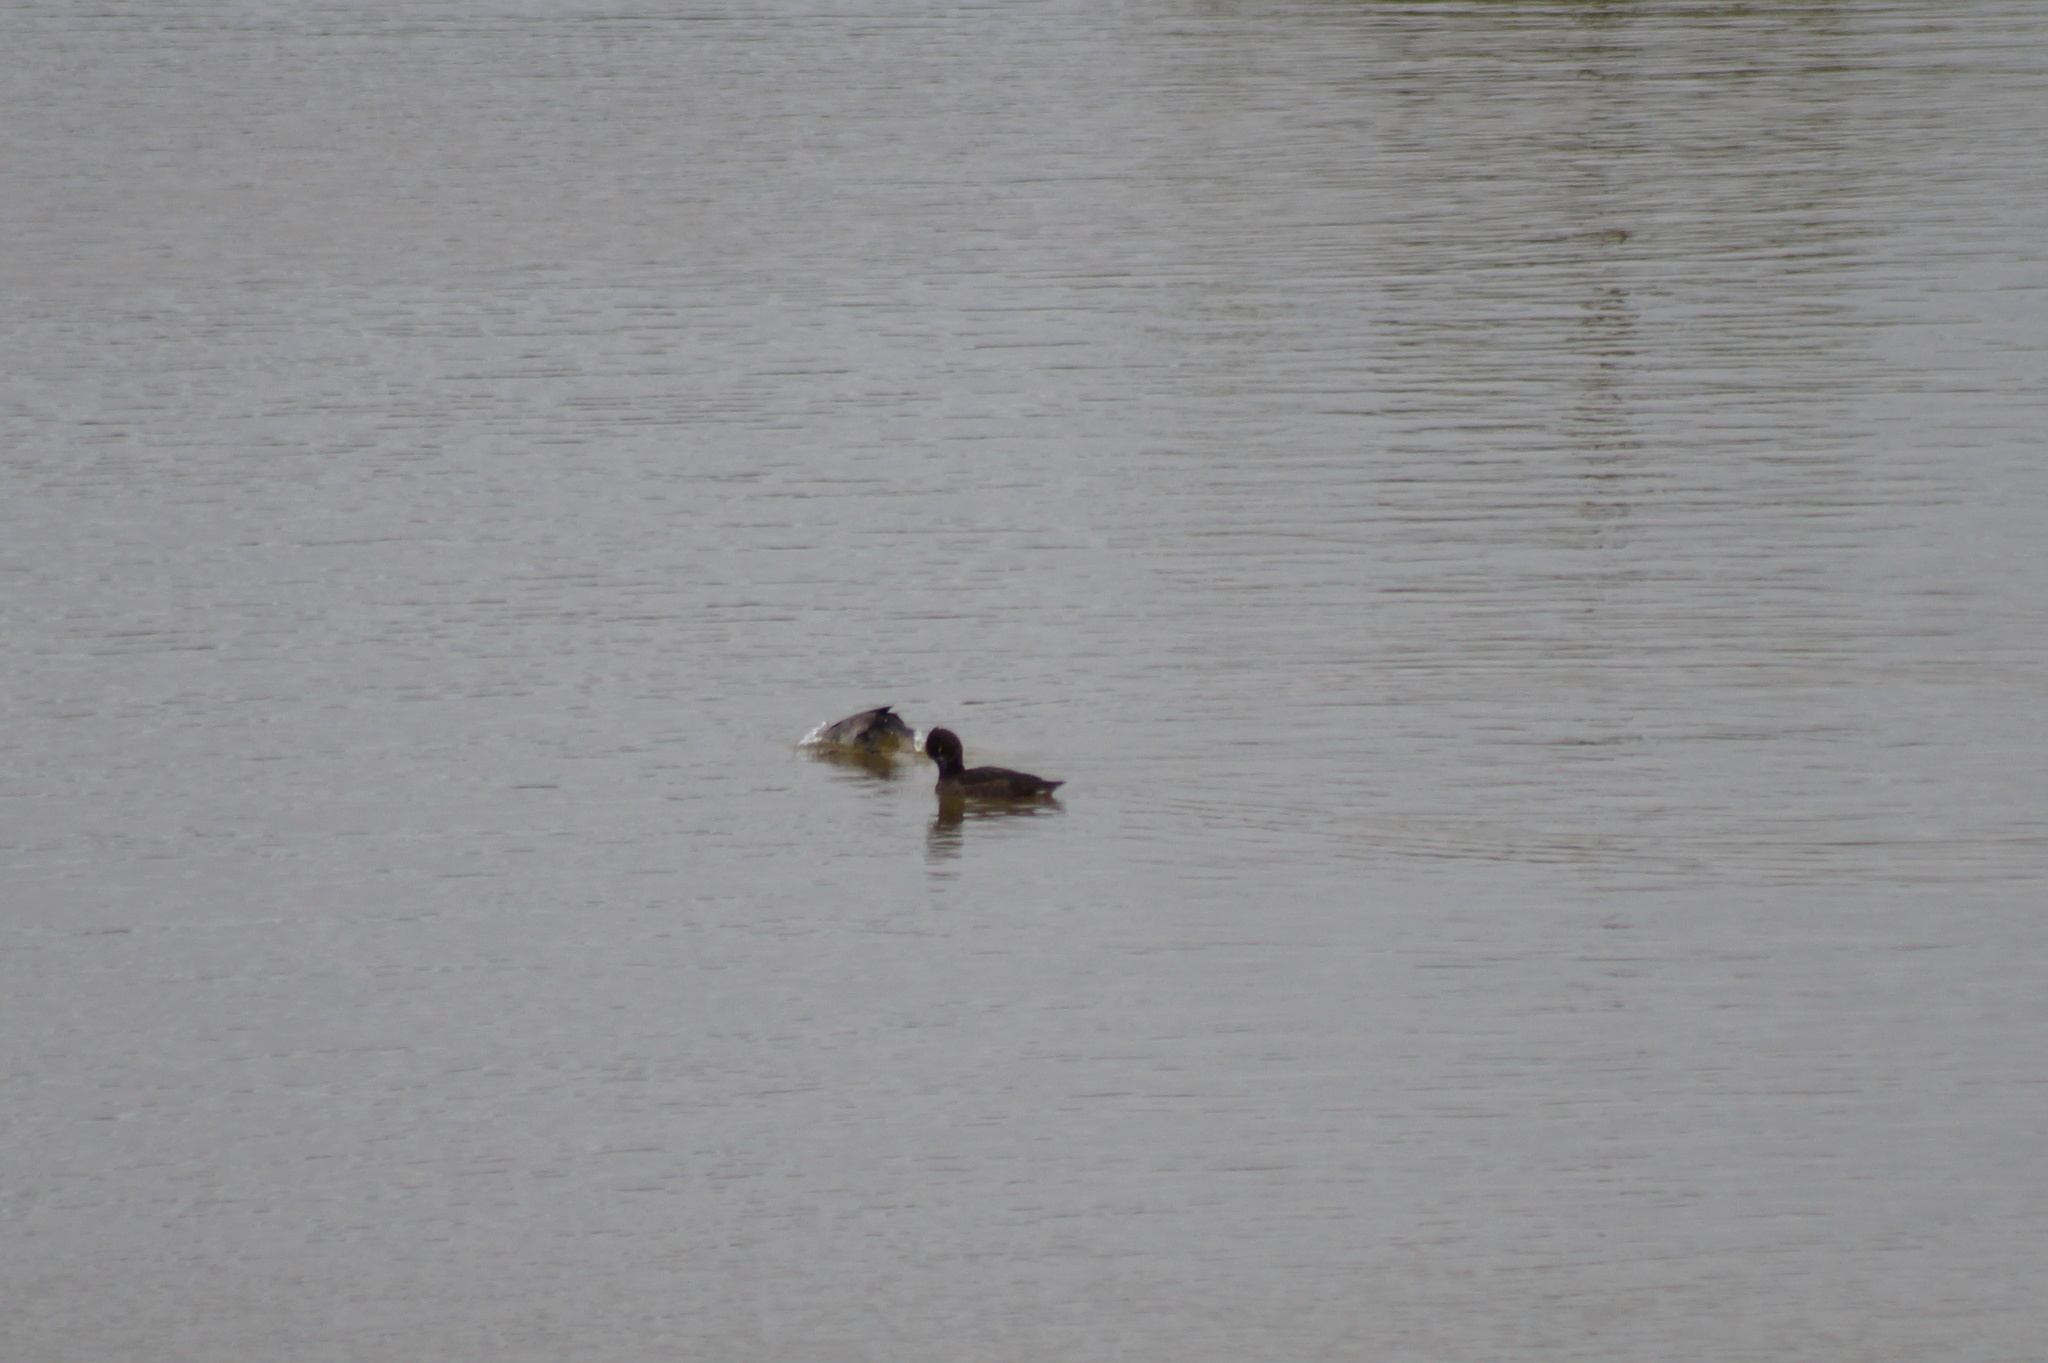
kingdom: Animalia
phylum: Chordata
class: Aves
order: Anseriformes
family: Anatidae
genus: Aythya
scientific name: Aythya fuligula
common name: Tufted duck
